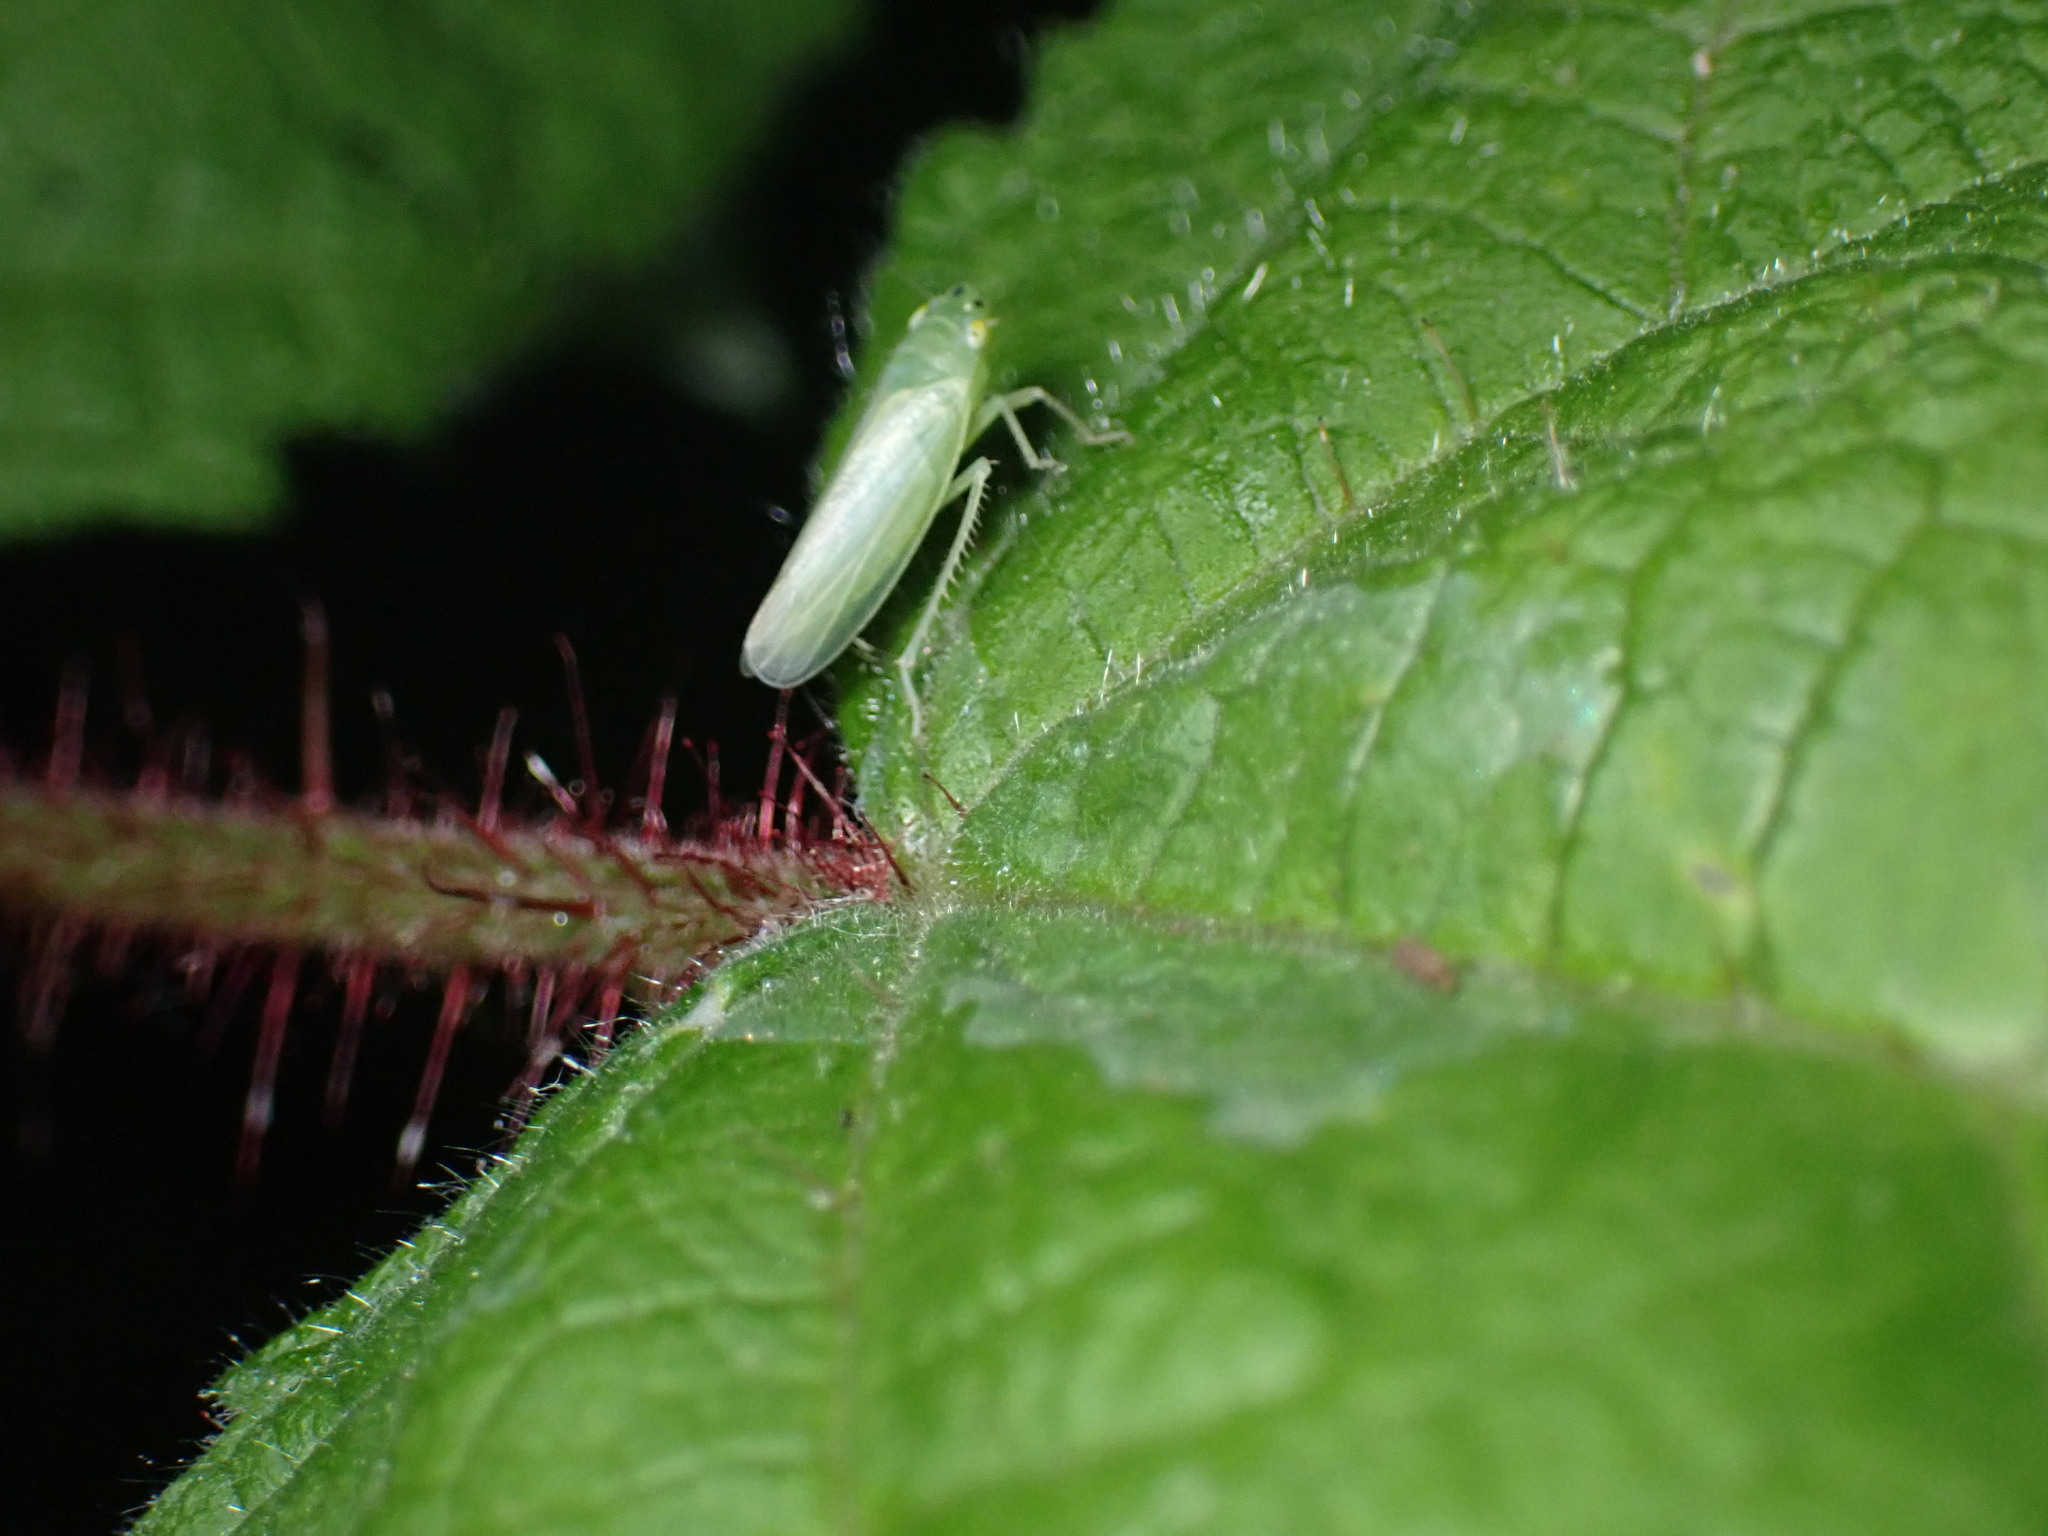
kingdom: Animalia
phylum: Arthropoda
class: Insecta
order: Hemiptera
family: Cicadellidae
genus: Pagaronia
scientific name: Pagaronia minor
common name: Leafhopper
